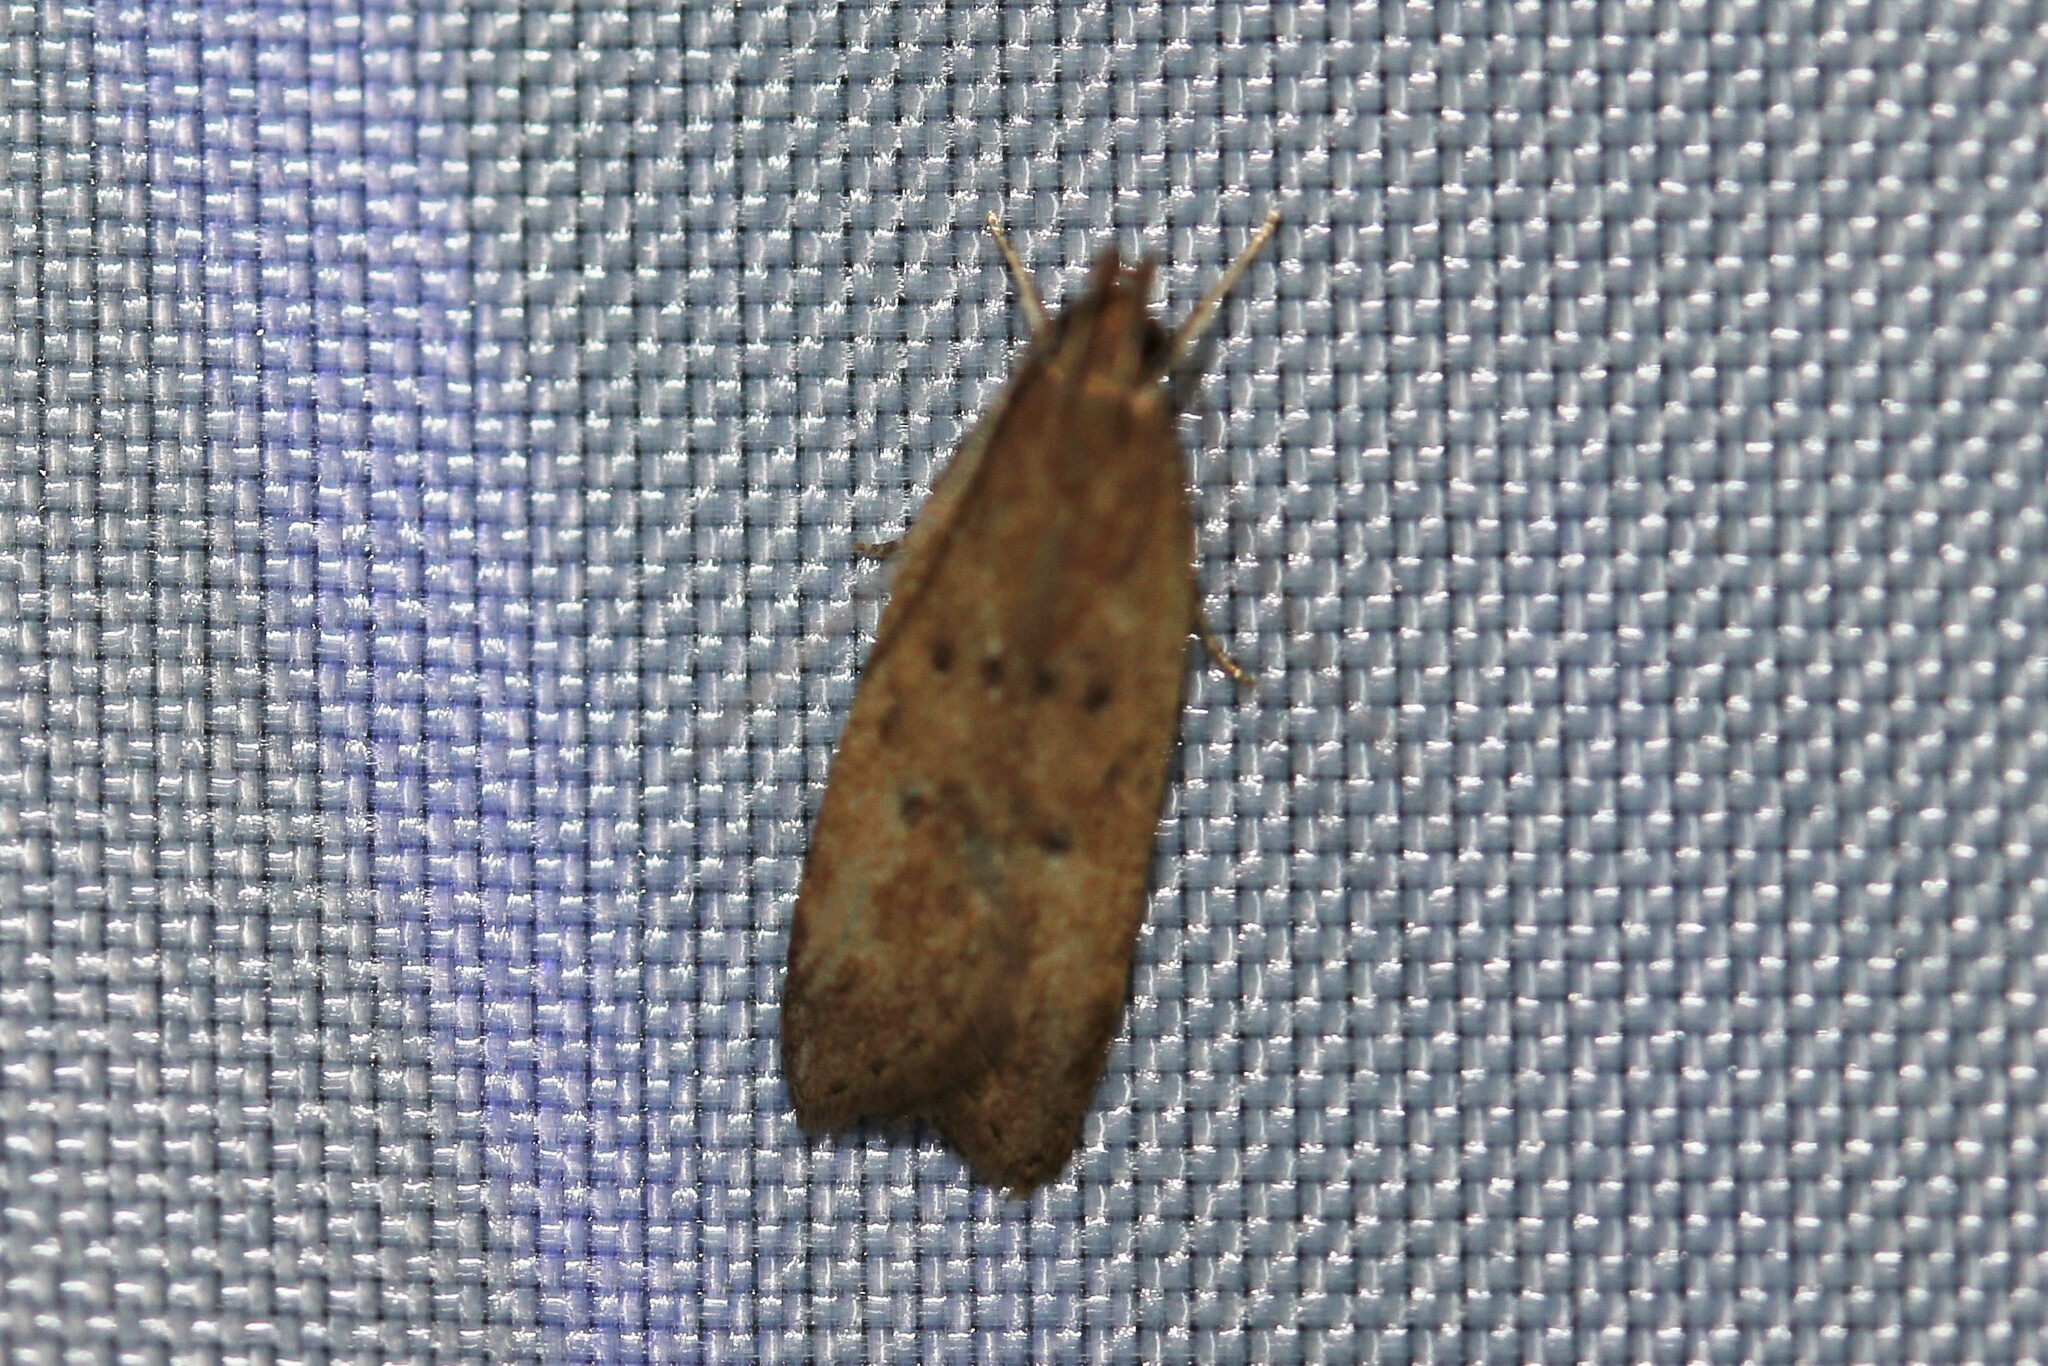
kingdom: Animalia
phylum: Arthropoda
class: Insecta
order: Lepidoptera
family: Gelechiidae
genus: Helcystogramma
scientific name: Helcystogramma lutatella
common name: Clay crest
